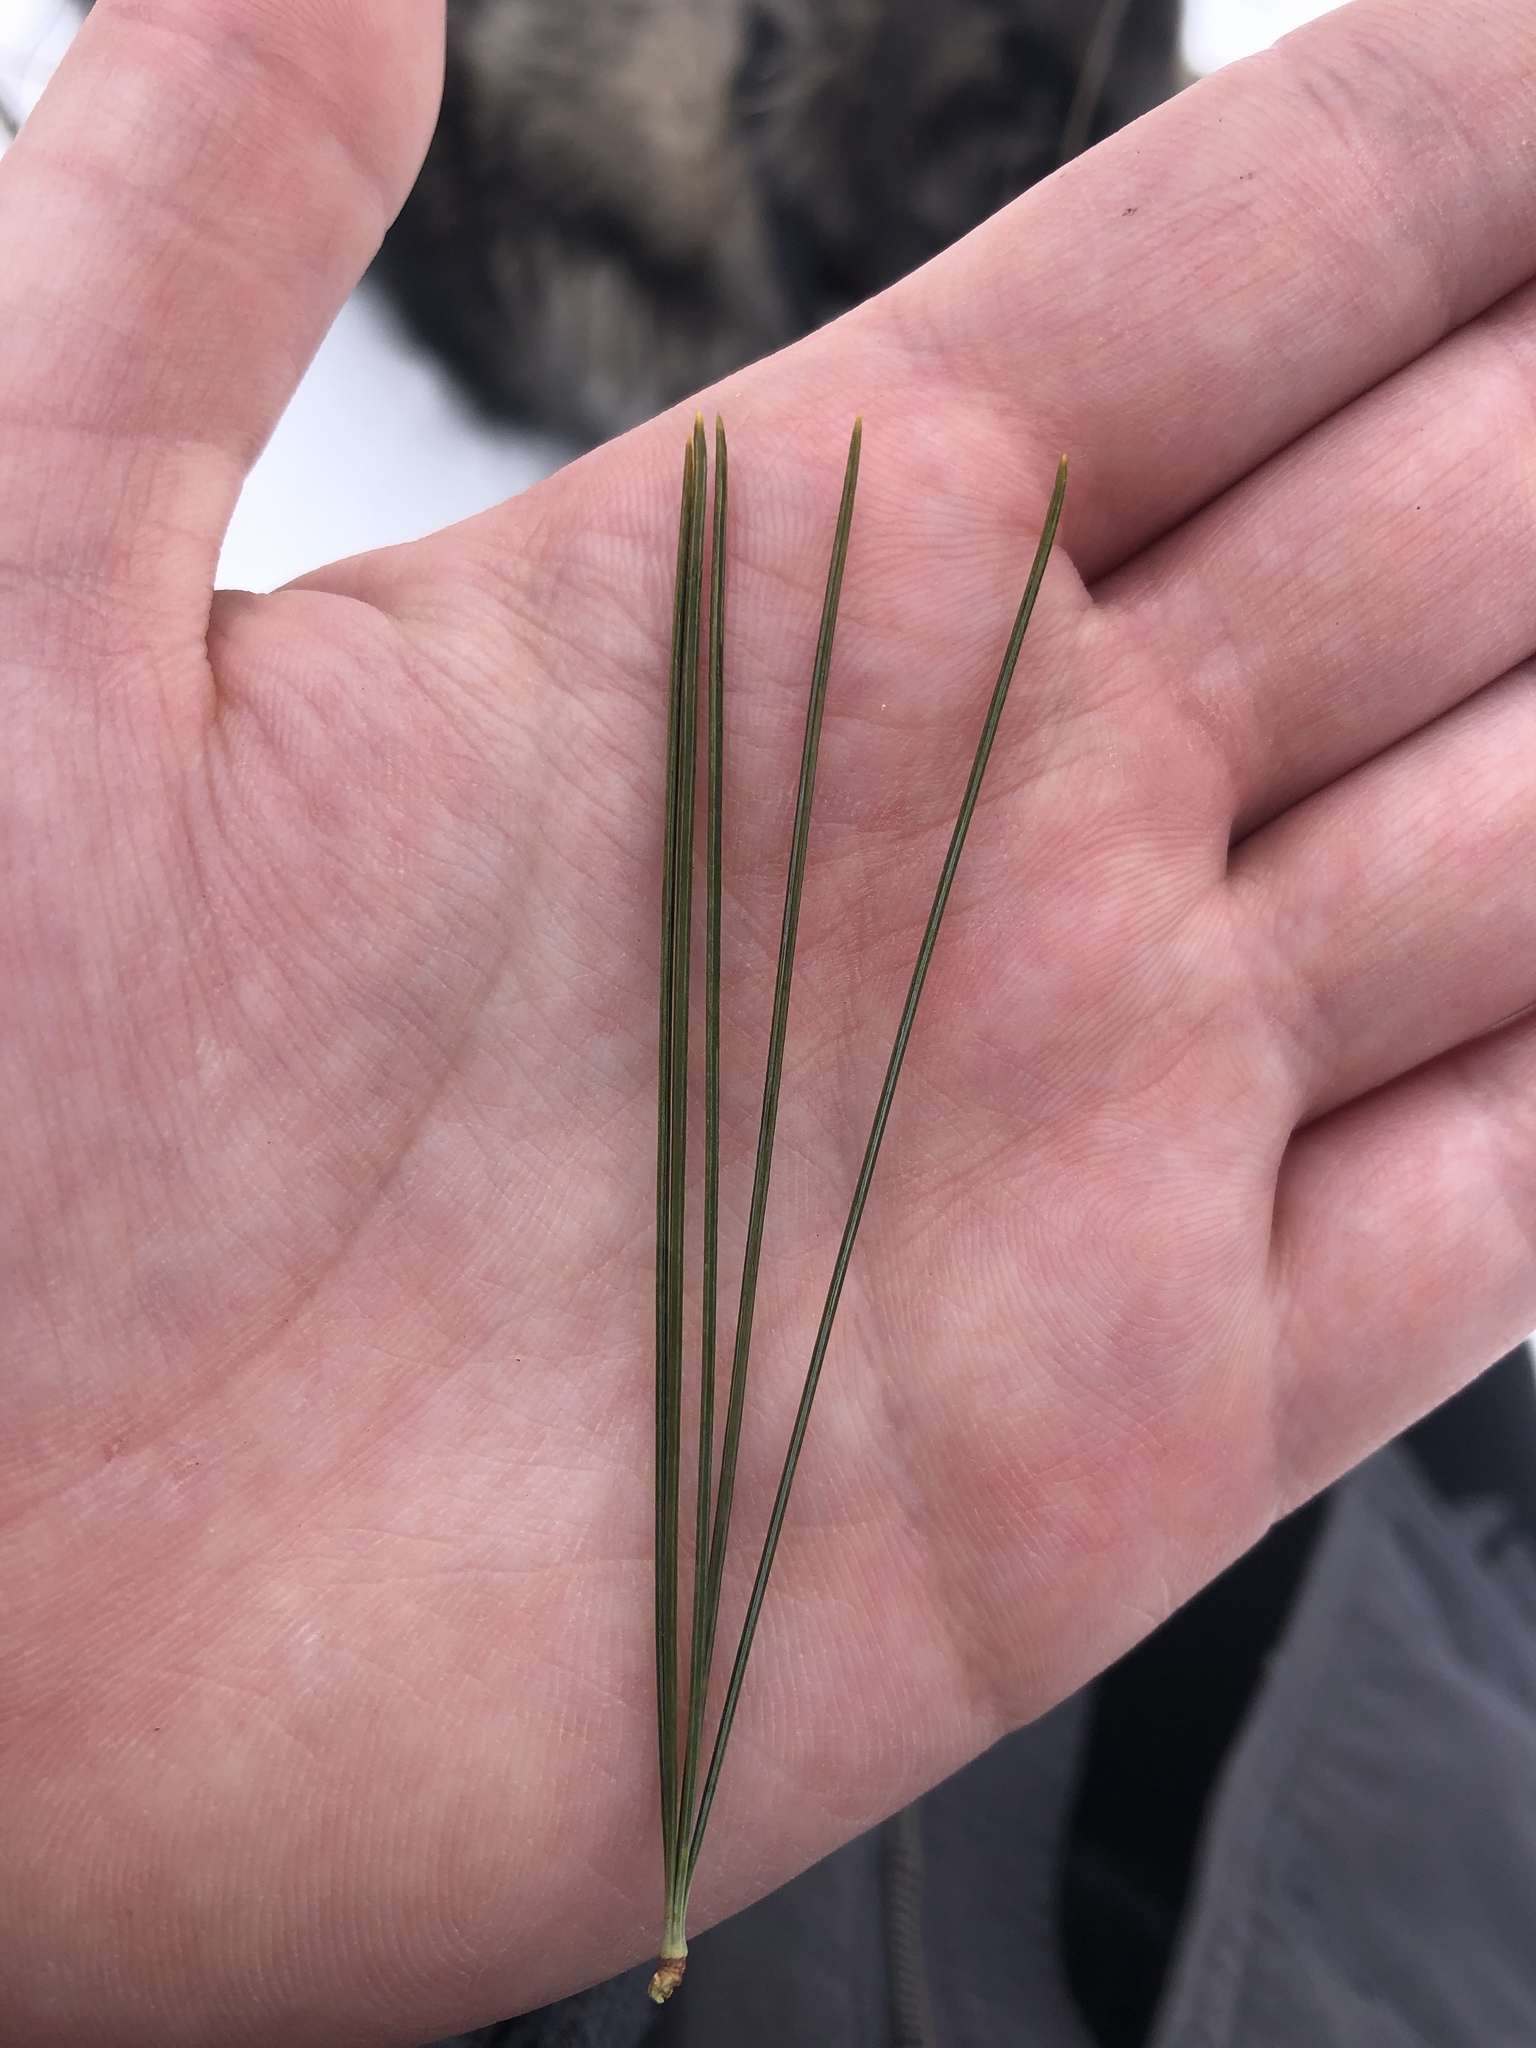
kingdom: Plantae
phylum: Tracheophyta
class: Pinopsida
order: Pinales
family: Pinaceae
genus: Pinus
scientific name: Pinus strobus
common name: Weymouth pine
